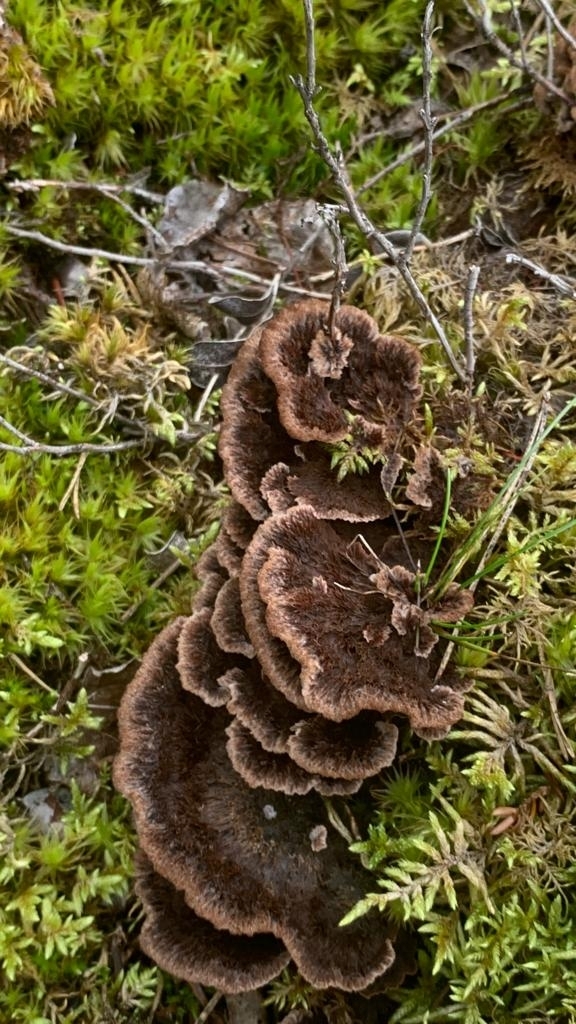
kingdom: Fungi
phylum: Basidiomycota
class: Agaricomycetes
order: Thelephorales
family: Thelephoraceae
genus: Thelephora
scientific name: Thelephora terrestris
